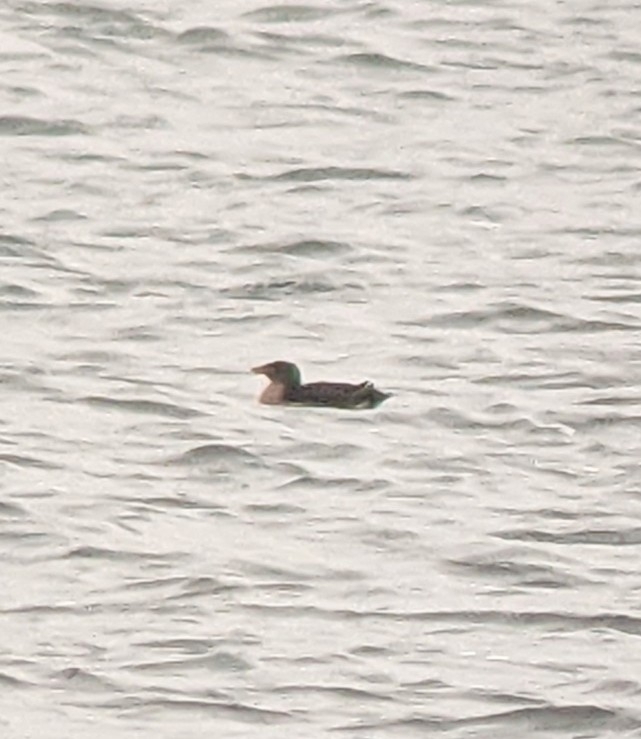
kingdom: Animalia
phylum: Chordata
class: Aves
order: Charadriiformes
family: Alcidae
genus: Cerorhinca
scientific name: Cerorhinca monocerata
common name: Rhinoceros auklet
